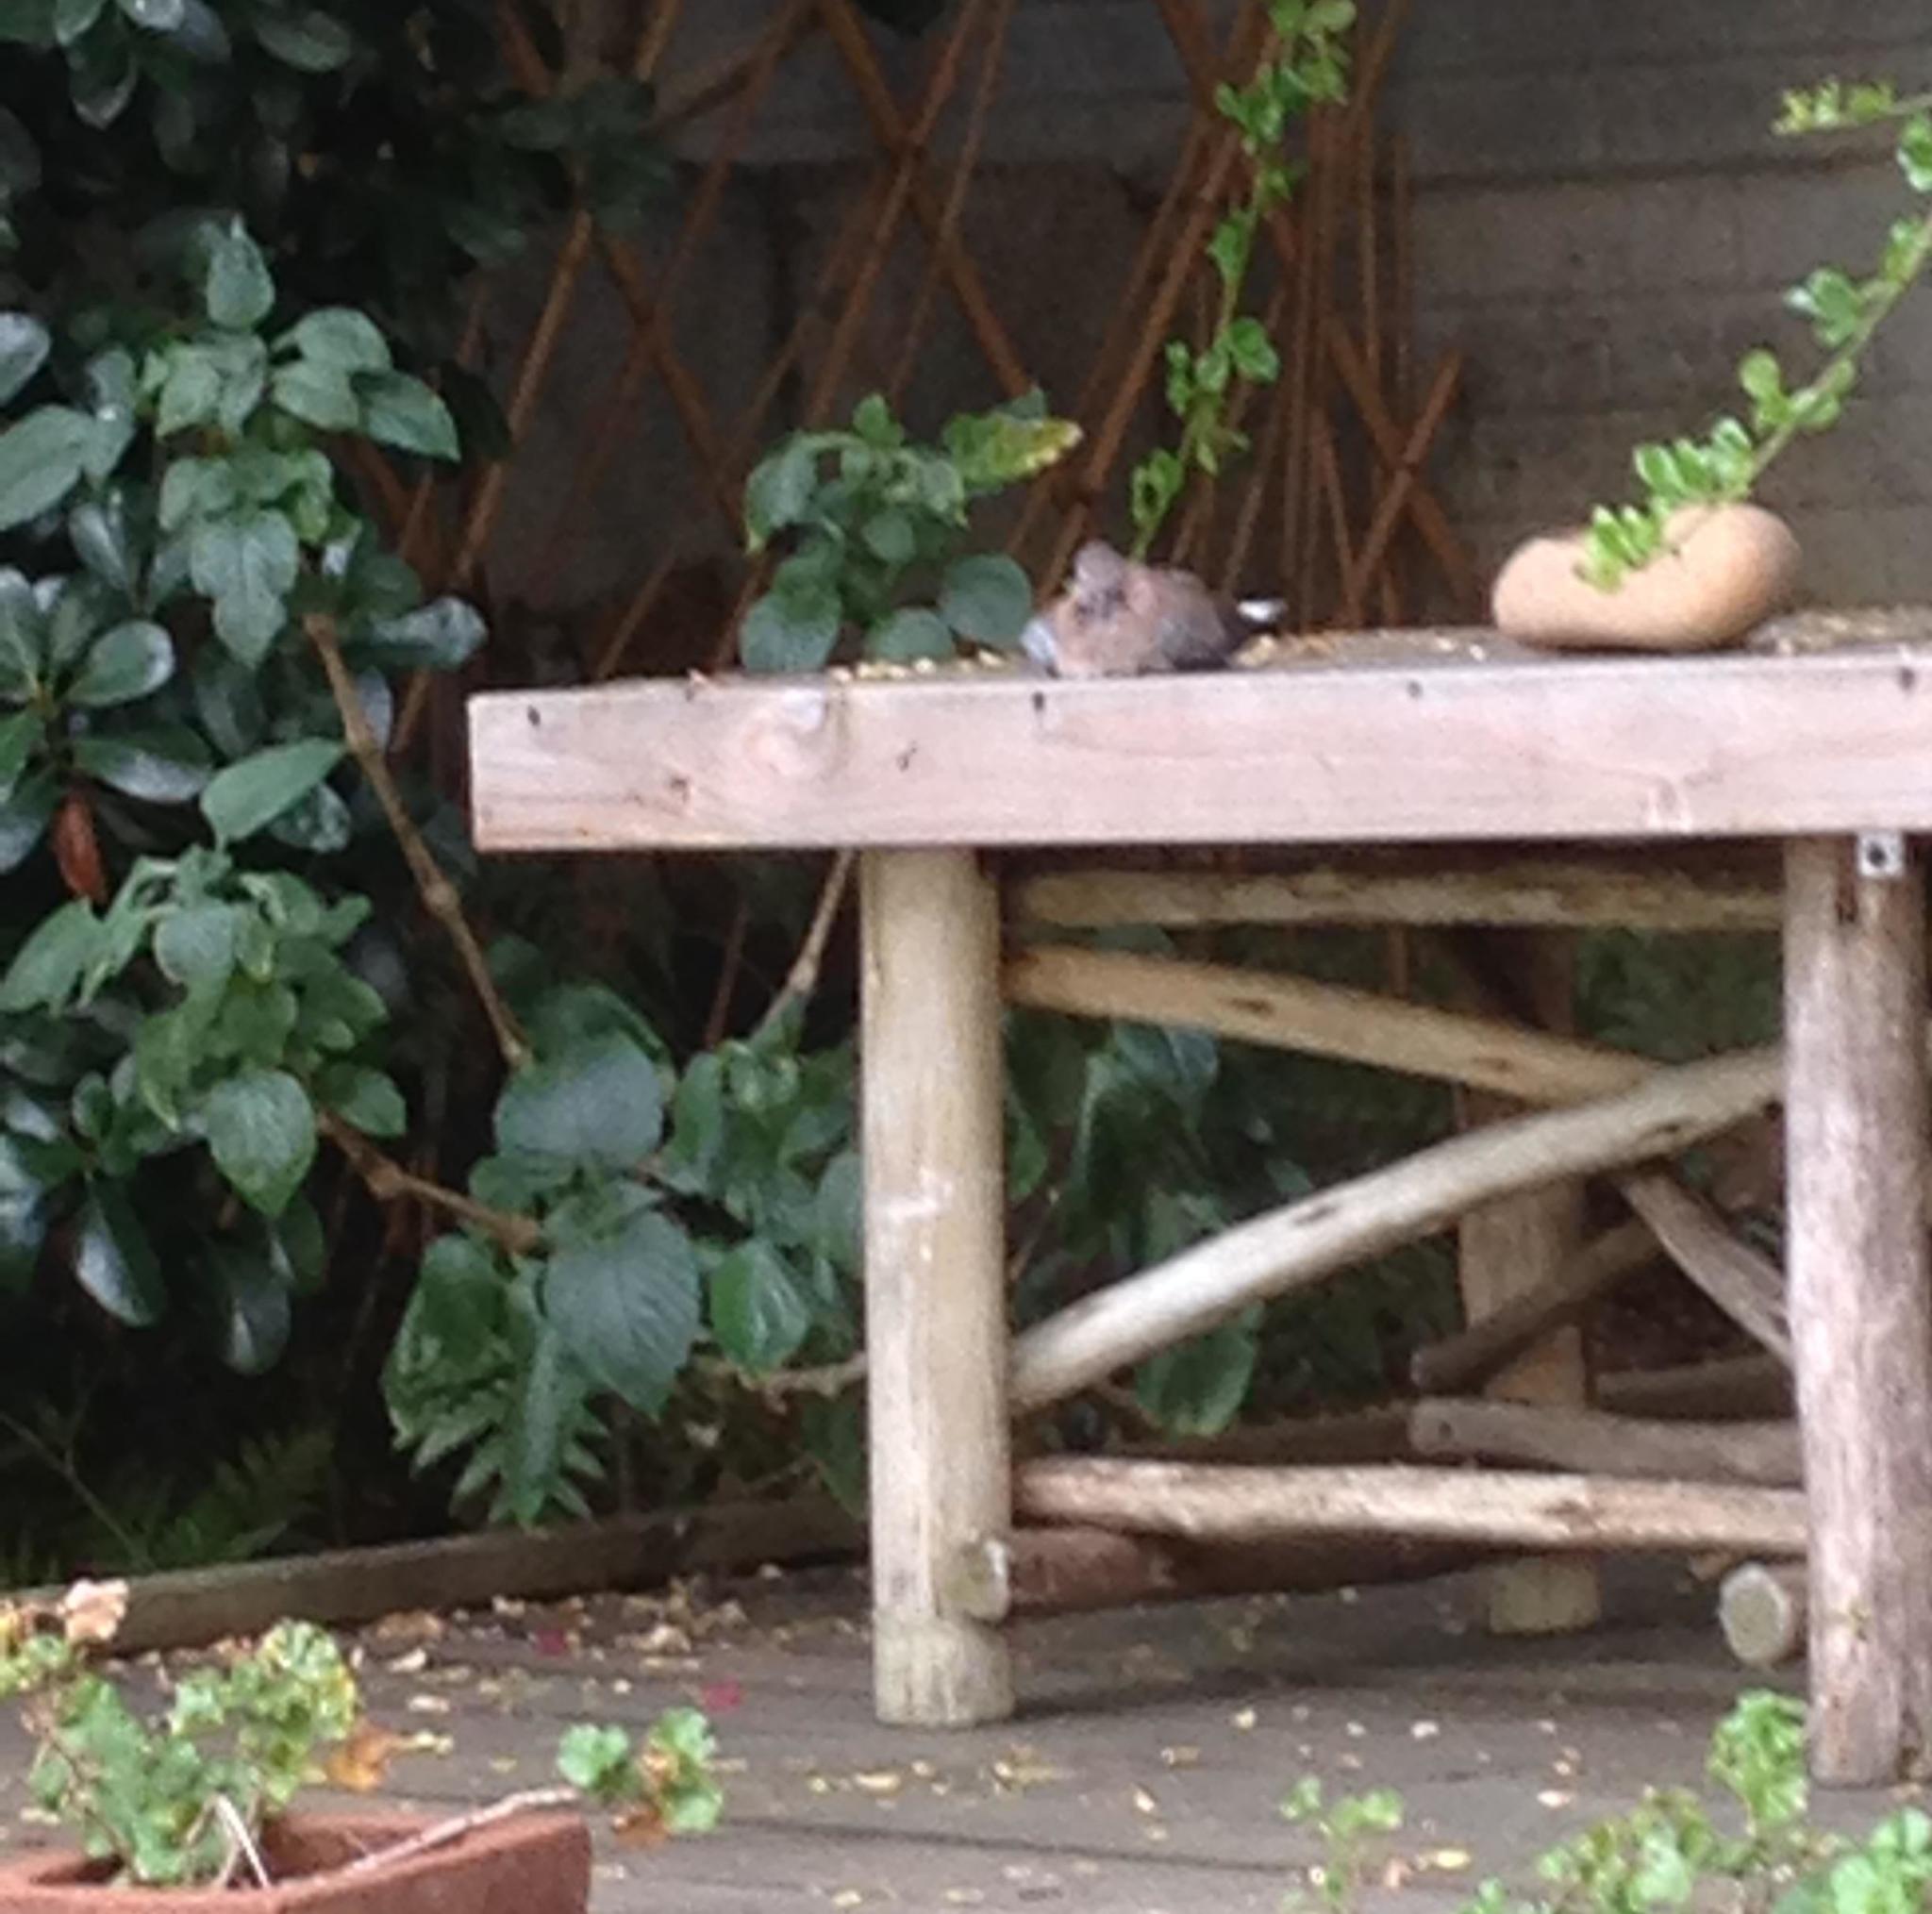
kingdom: Animalia
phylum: Chordata
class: Aves
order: Accipitriformes
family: Accipitridae
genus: Accipiter
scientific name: Accipiter rufiventris
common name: Rufous-breasted sparrowhawk
